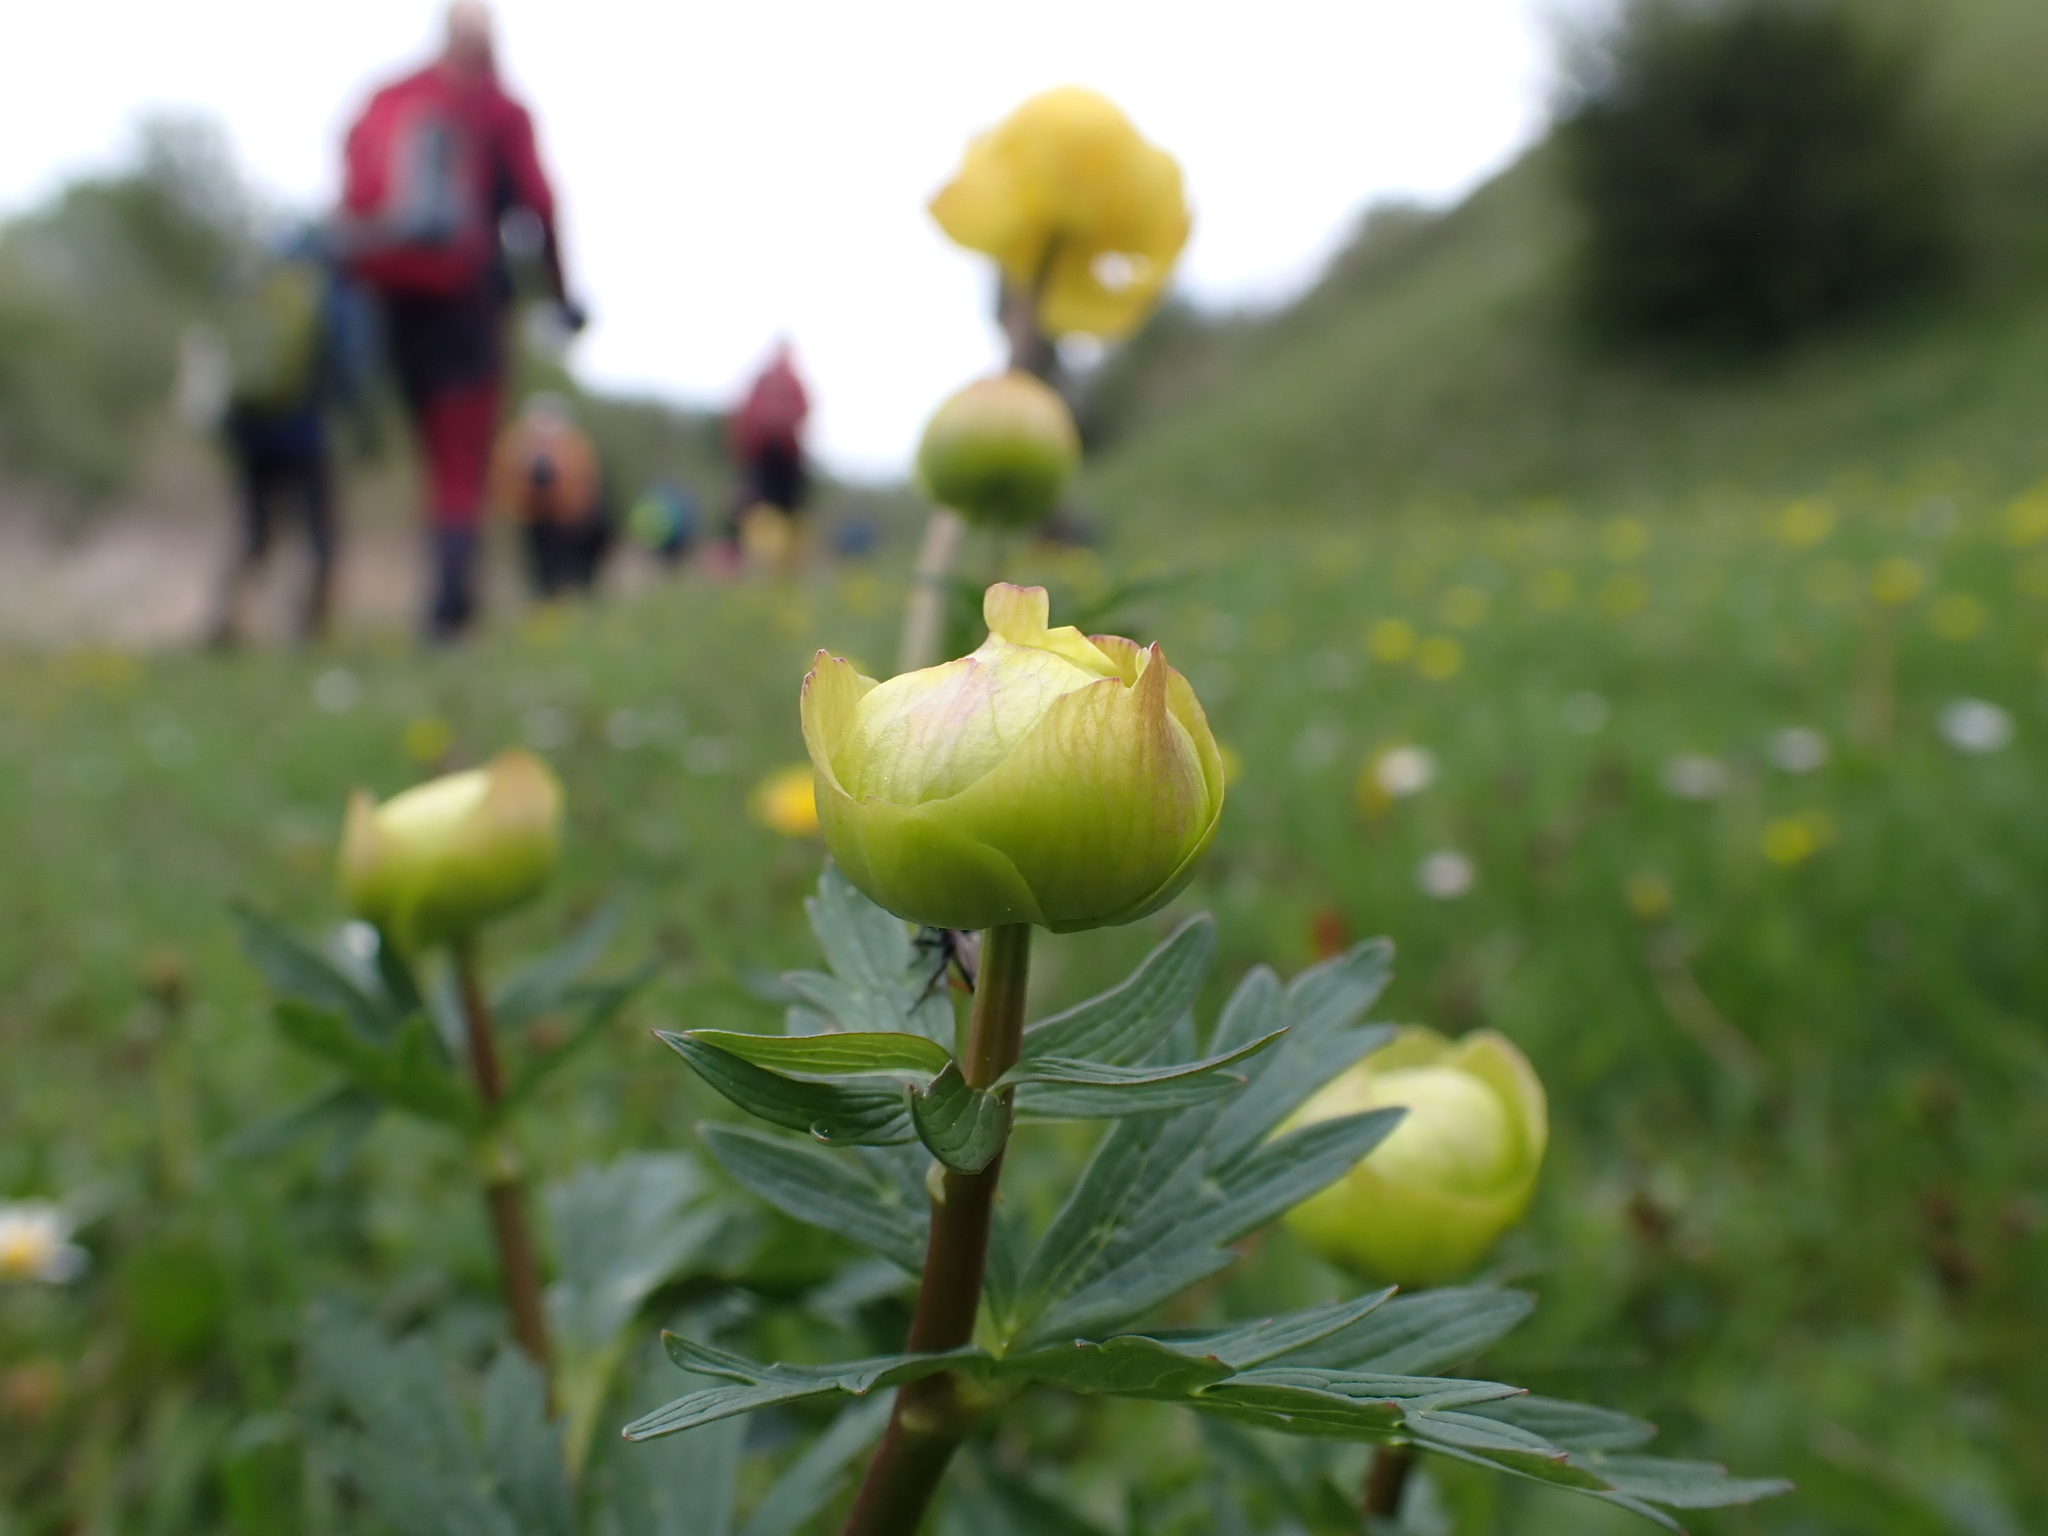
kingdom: Plantae
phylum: Tracheophyta
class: Magnoliopsida
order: Ranunculales
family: Ranunculaceae
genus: Trollius
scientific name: Trollius europaeus
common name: European globeflower
